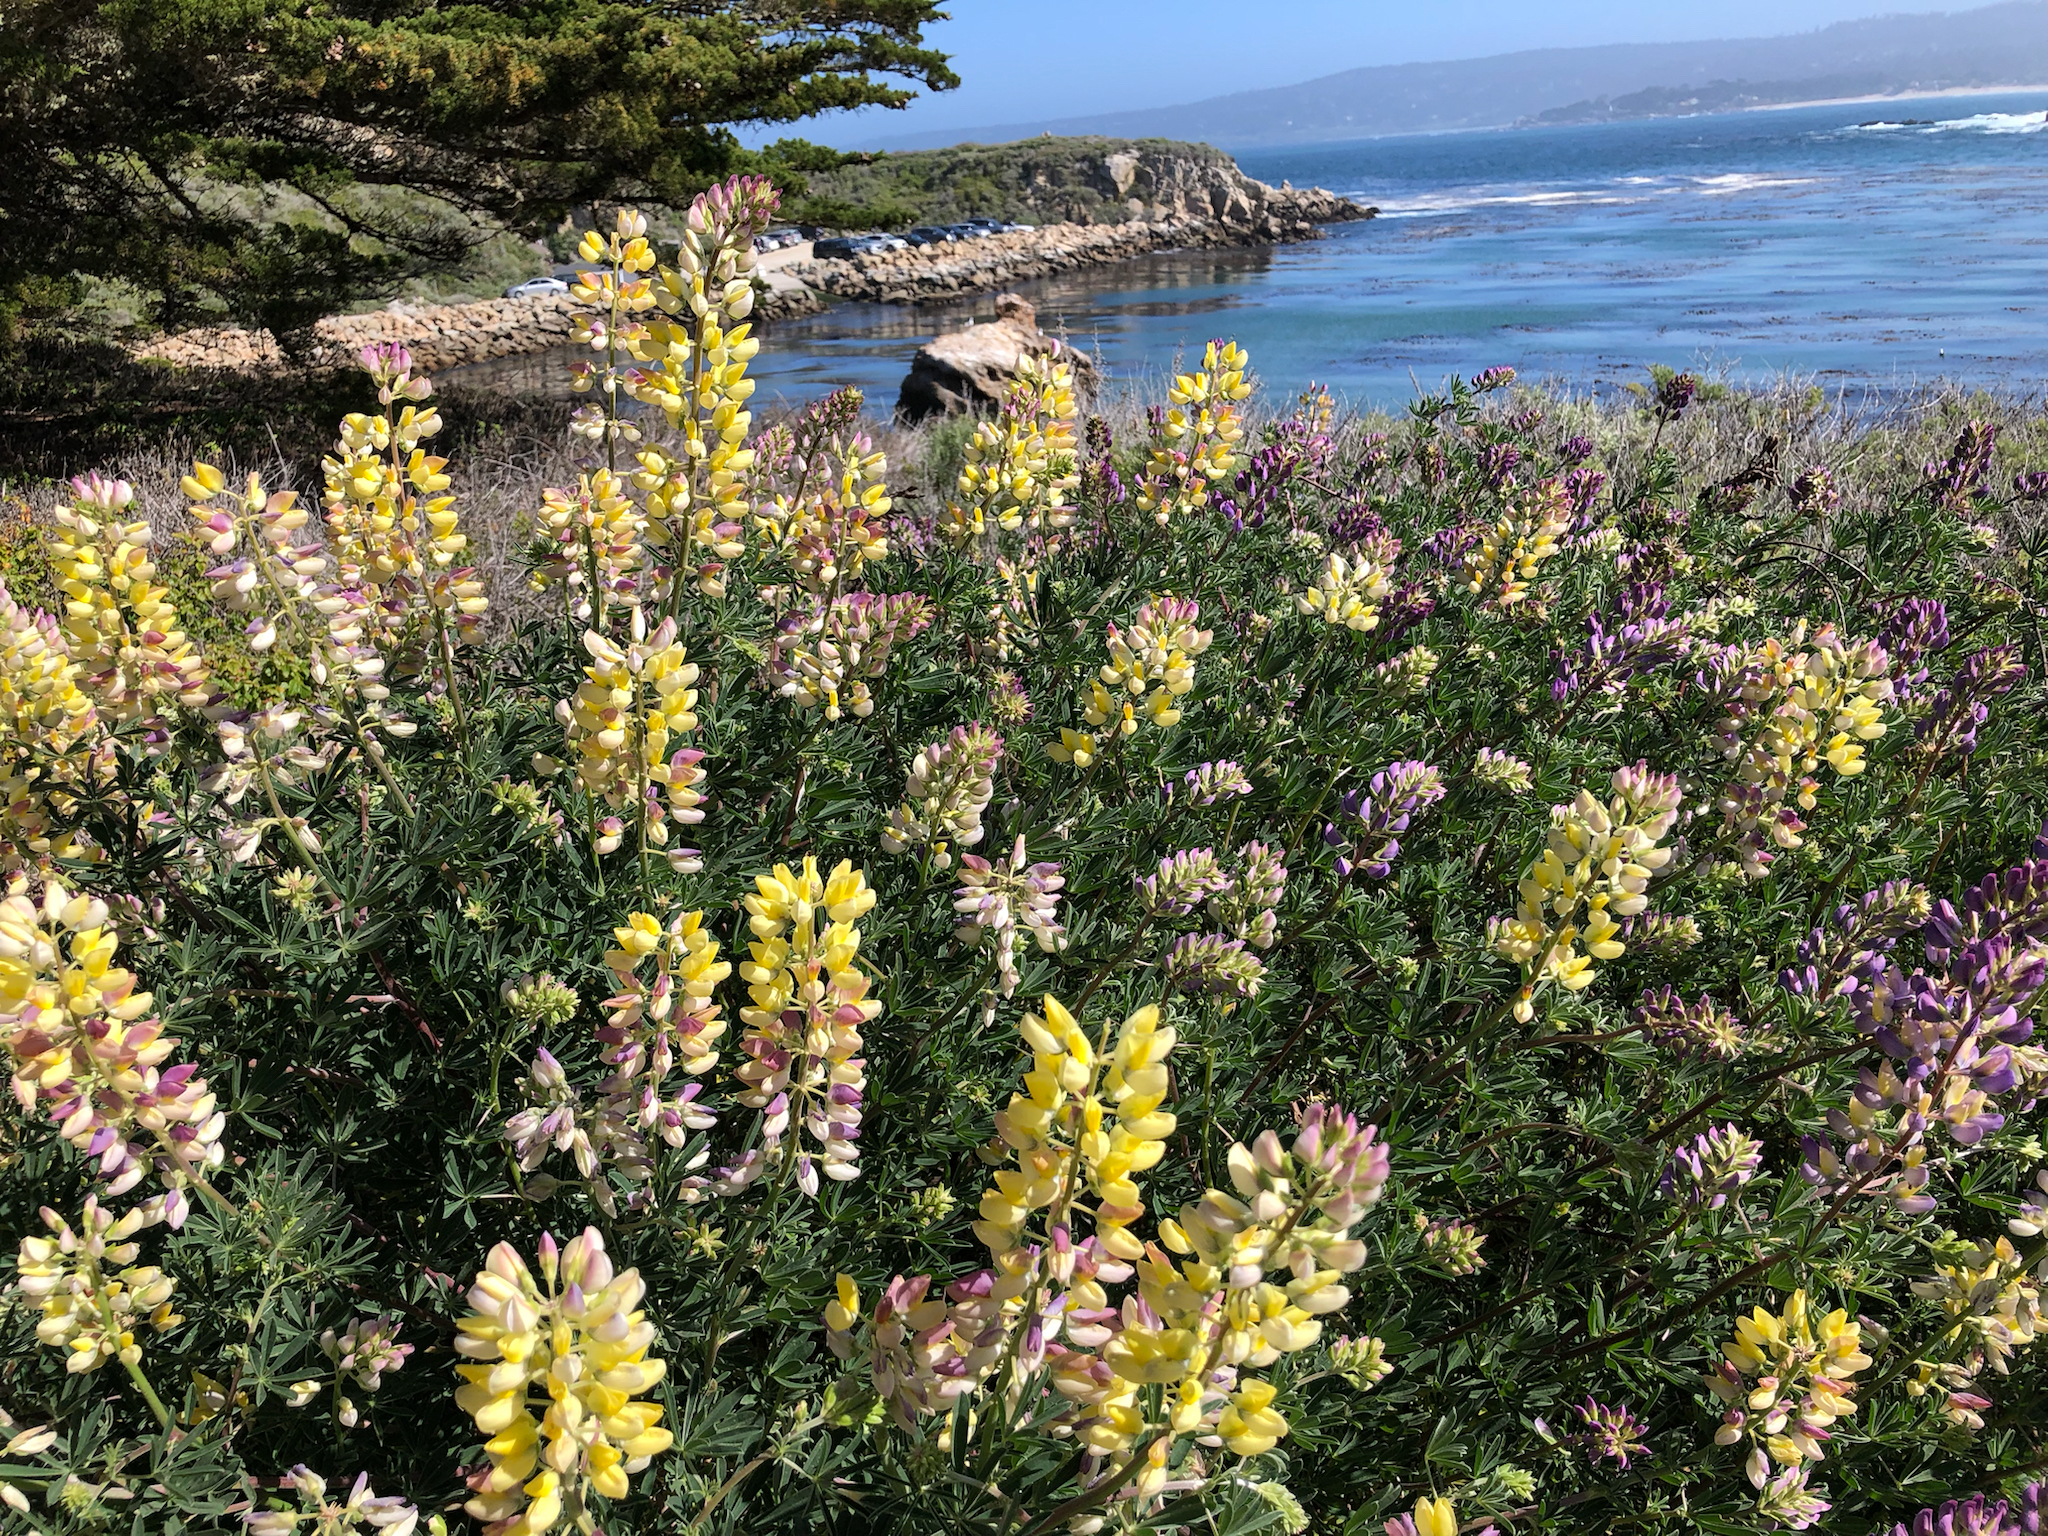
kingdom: Plantae
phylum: Tracheophyta
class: Magnoliopsida
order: Fabales
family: Fabaceae
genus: Lupinus
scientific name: Lupinus arboreus
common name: Yellow bush lupine
